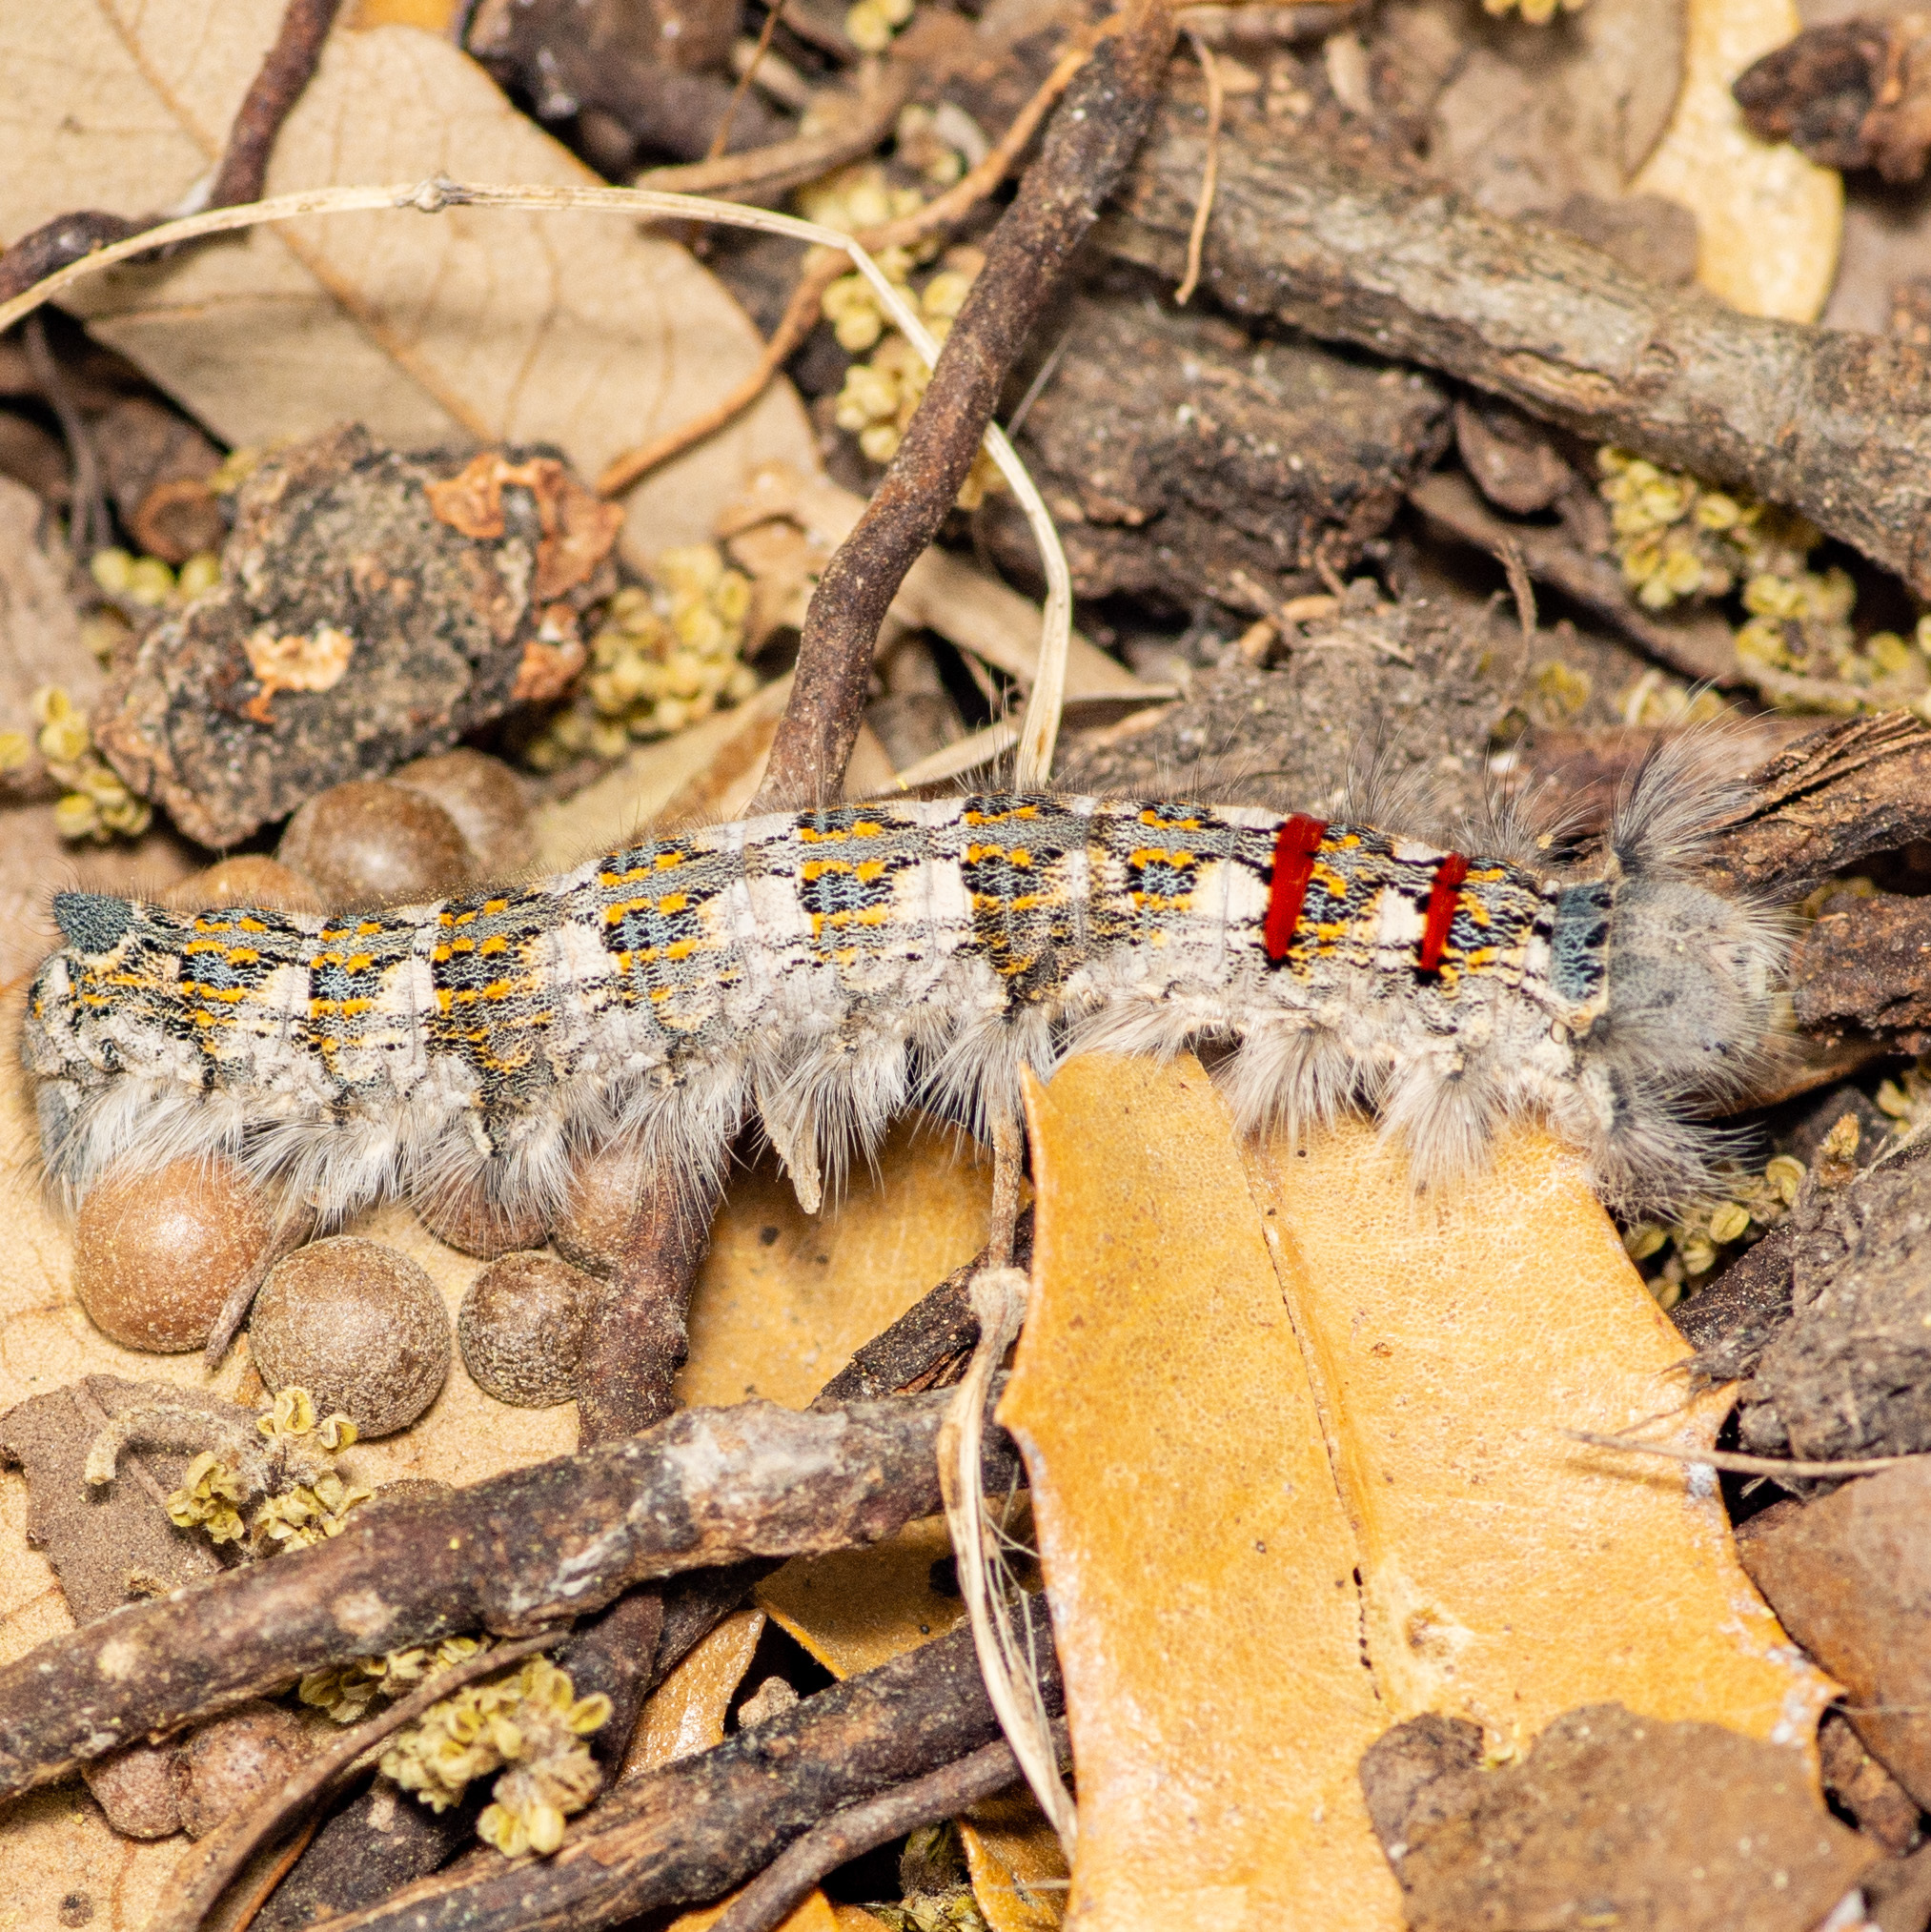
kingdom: Animalia
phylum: Arthropoda
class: Insecta
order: Lepidoptera
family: Lasiocampidae
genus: Phyllodesma
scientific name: Phyllodesma americana
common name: American lappet moth
